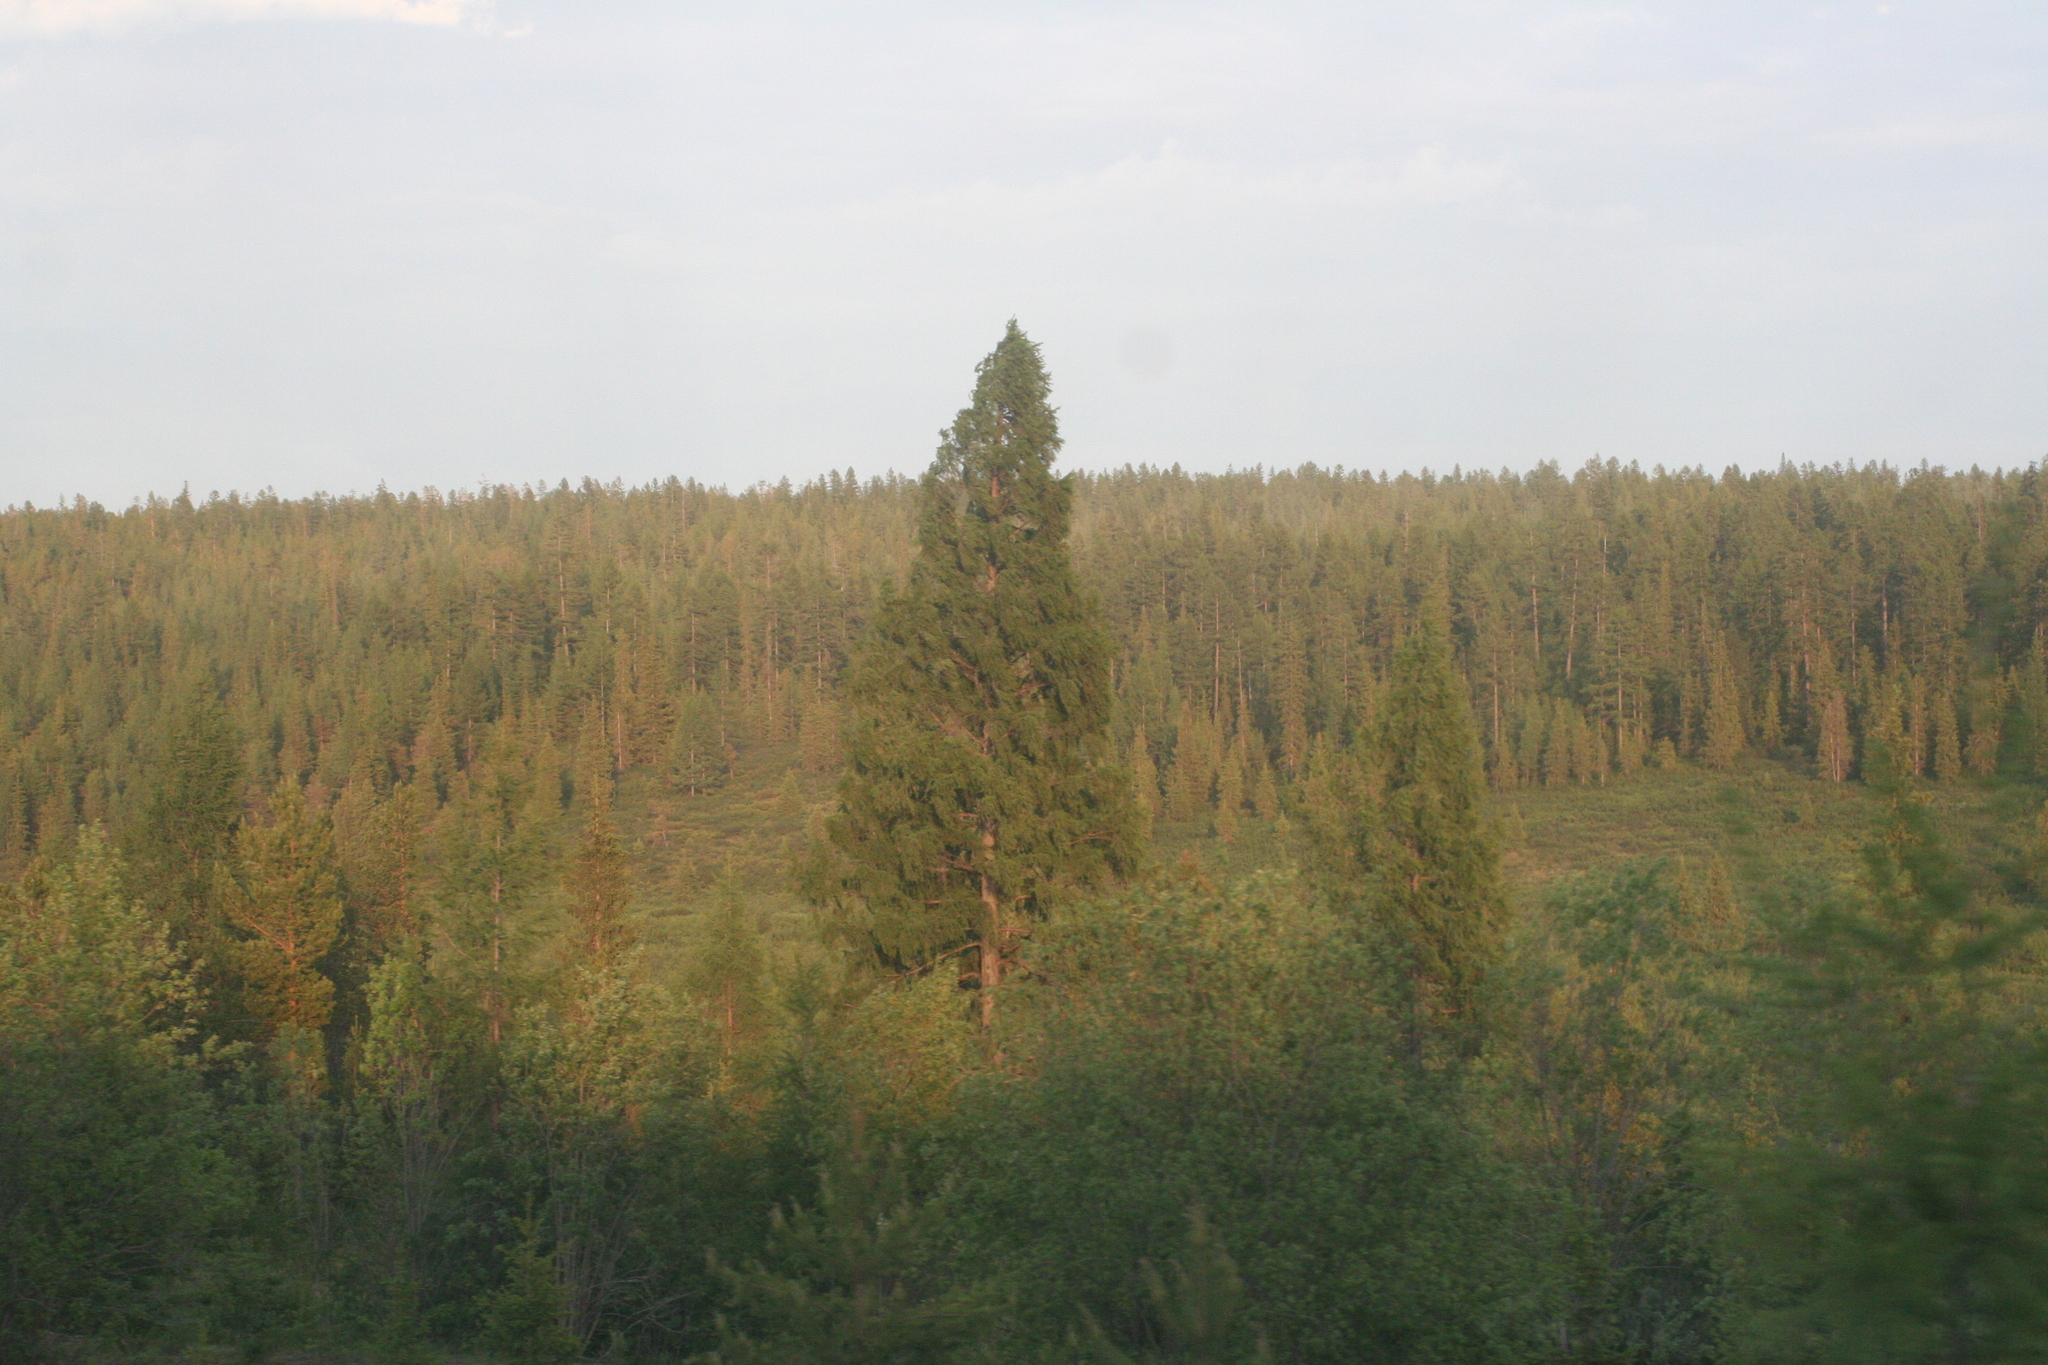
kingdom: Plantae
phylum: Tracheophyta
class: Pinopsida
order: Pinales
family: Pinaceae
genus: Larix
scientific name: Larix gmelinii
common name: Dahurian larch
